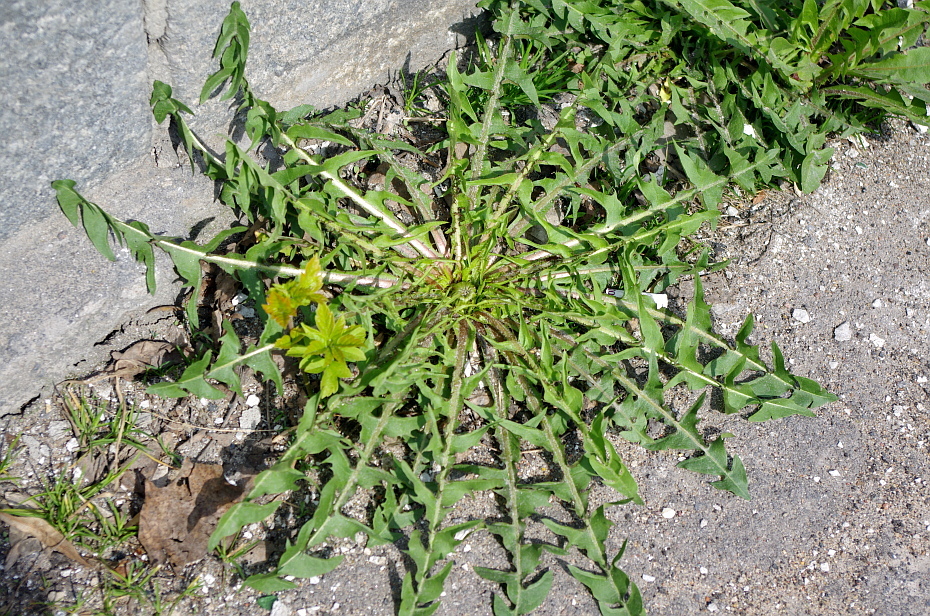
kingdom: Plantae
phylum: Tracheophyta
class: Magnoliopsida
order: Asterales
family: Asteraceae
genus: Taraxacum
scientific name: Taraxacum officinale
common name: Common dandelion
